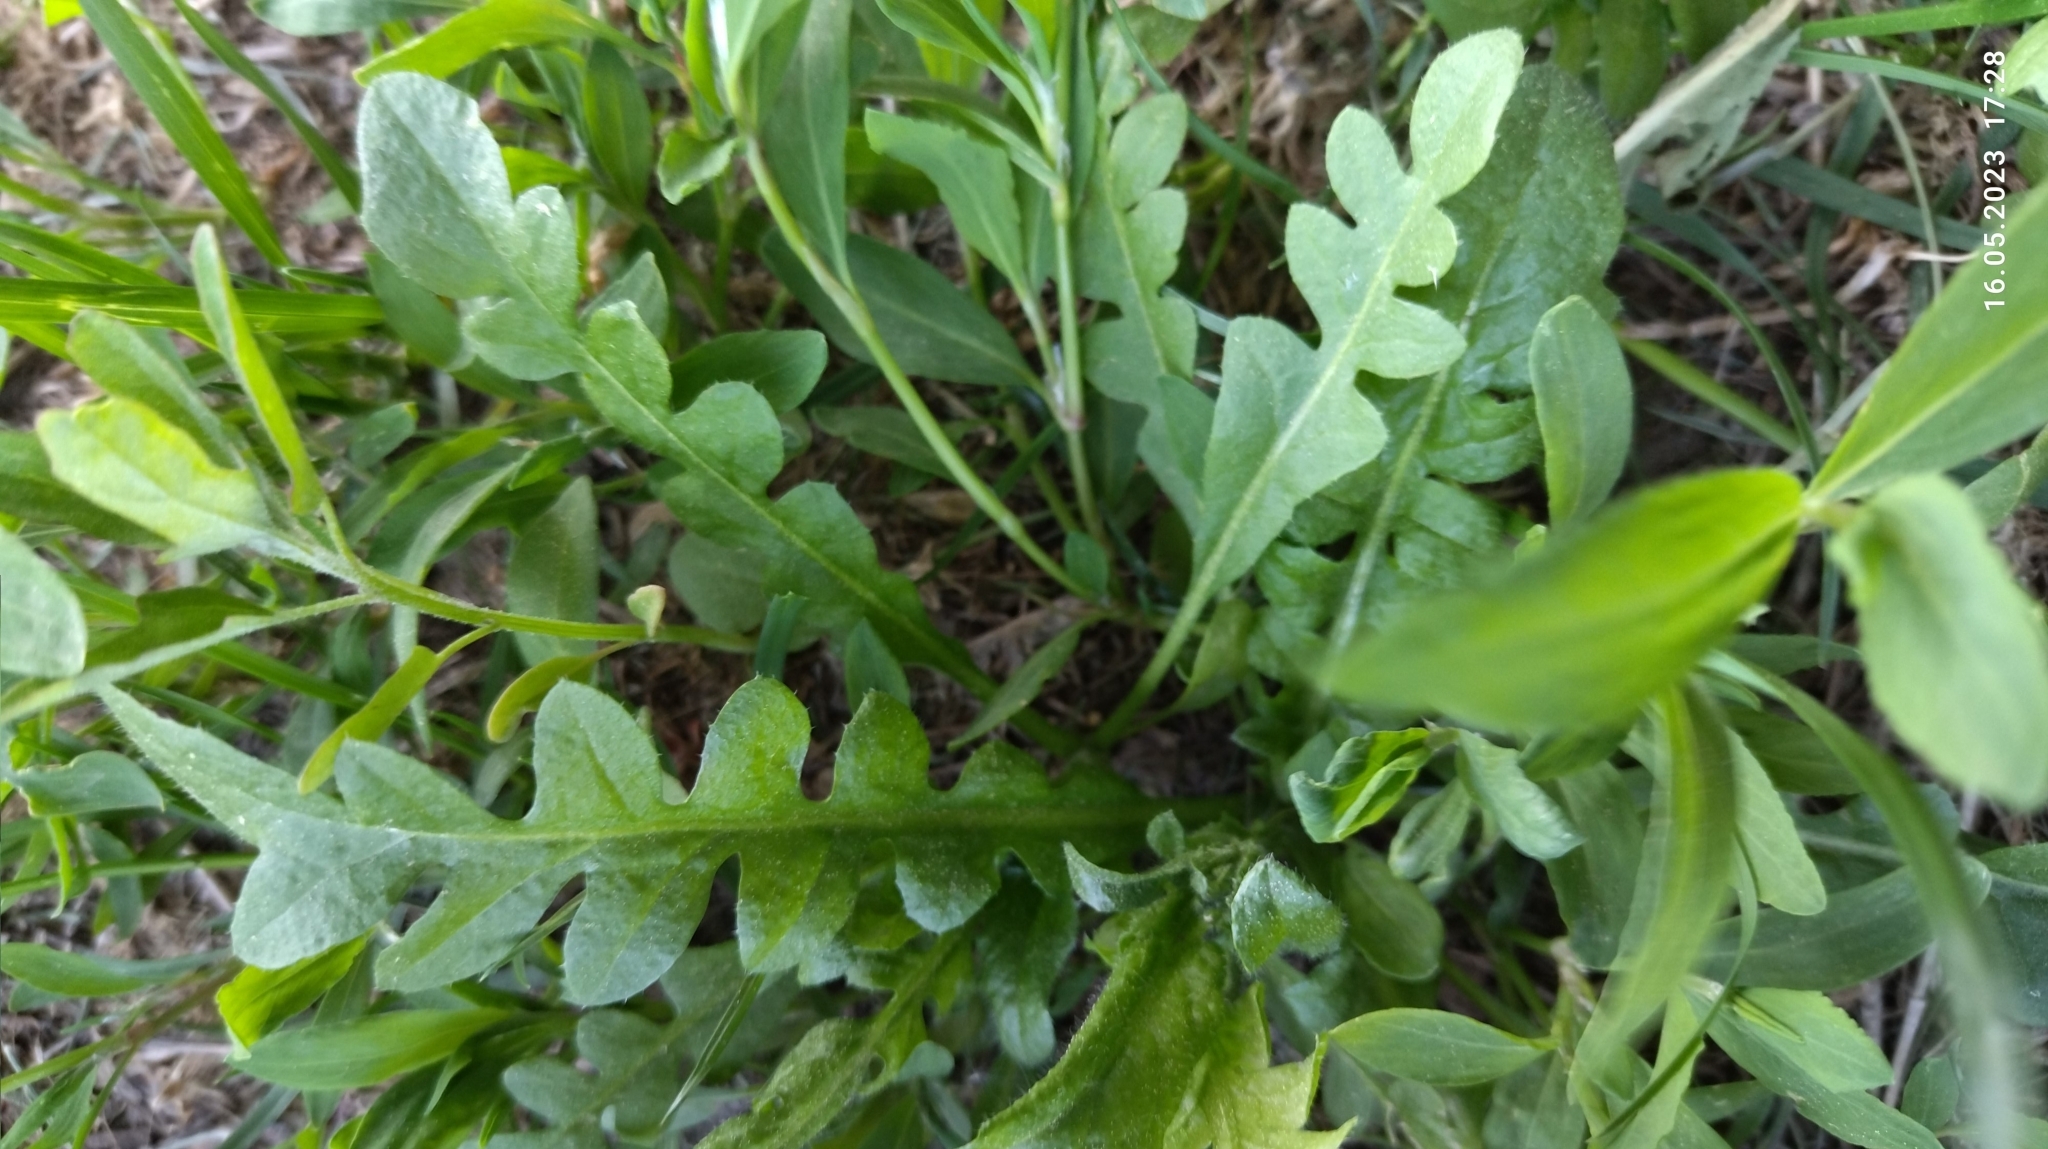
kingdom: Plantae
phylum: Tracheophyta
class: Magnoliopsida
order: Brassicales
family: Brassicaceae
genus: Capsella
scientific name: Capsella bursa-pastoris
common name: Shepherd's purse
